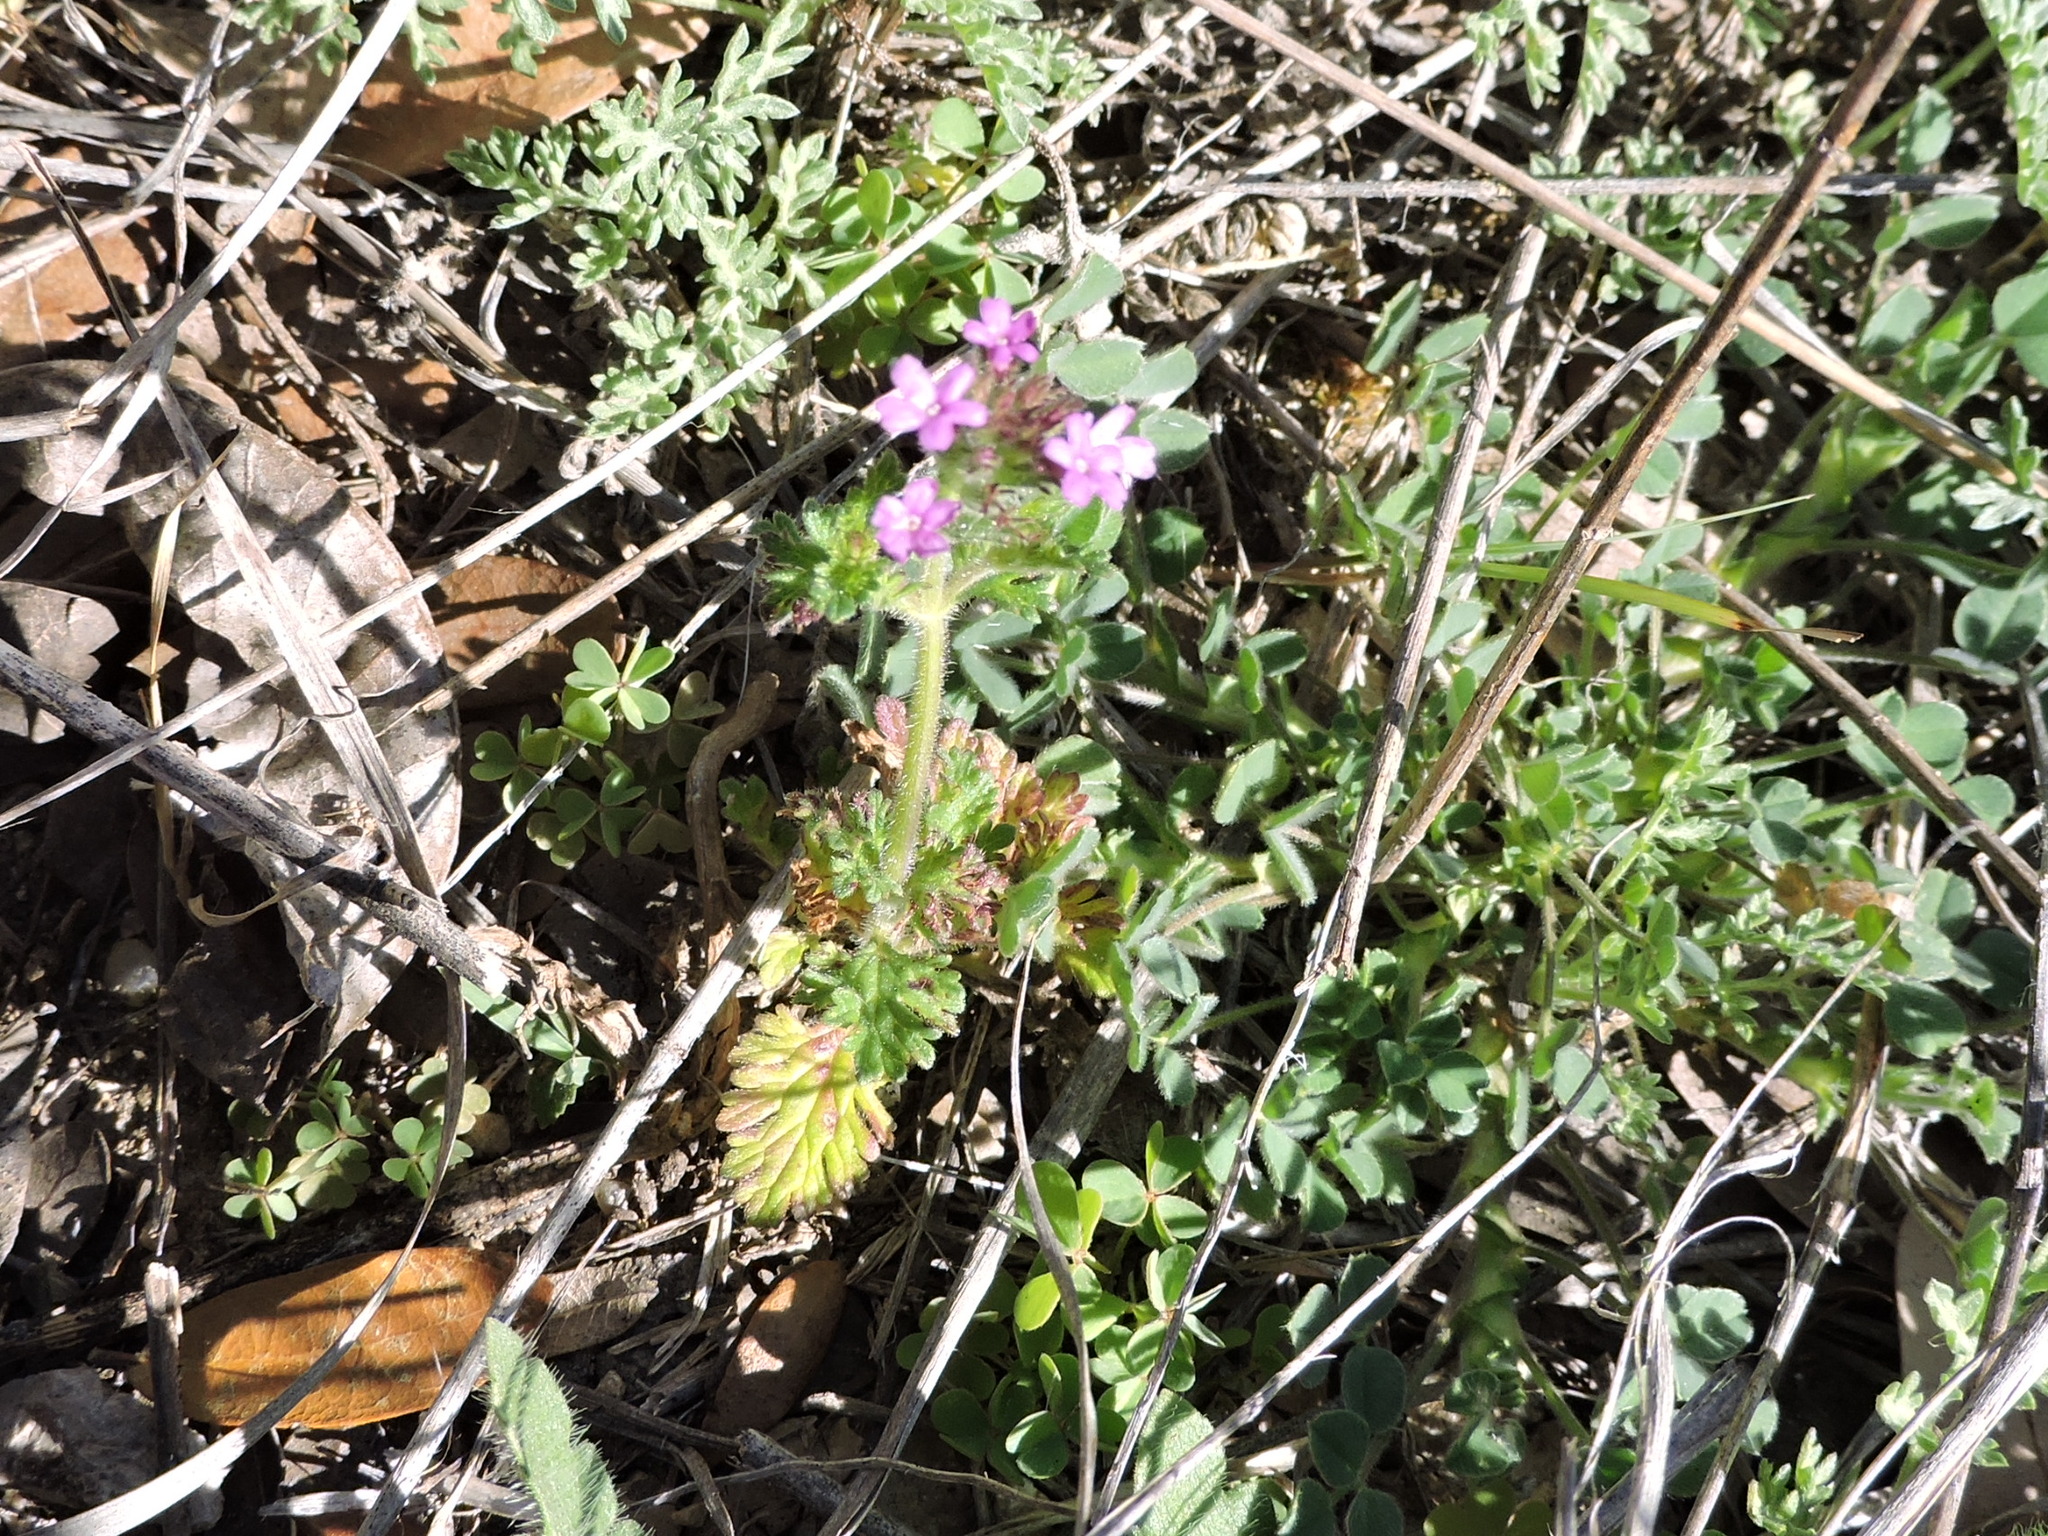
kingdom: Plantae
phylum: Tracheophyta
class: Magnoliopsida
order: Lamiales
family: Verbenaceae
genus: Verbena
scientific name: Verbena pumila
